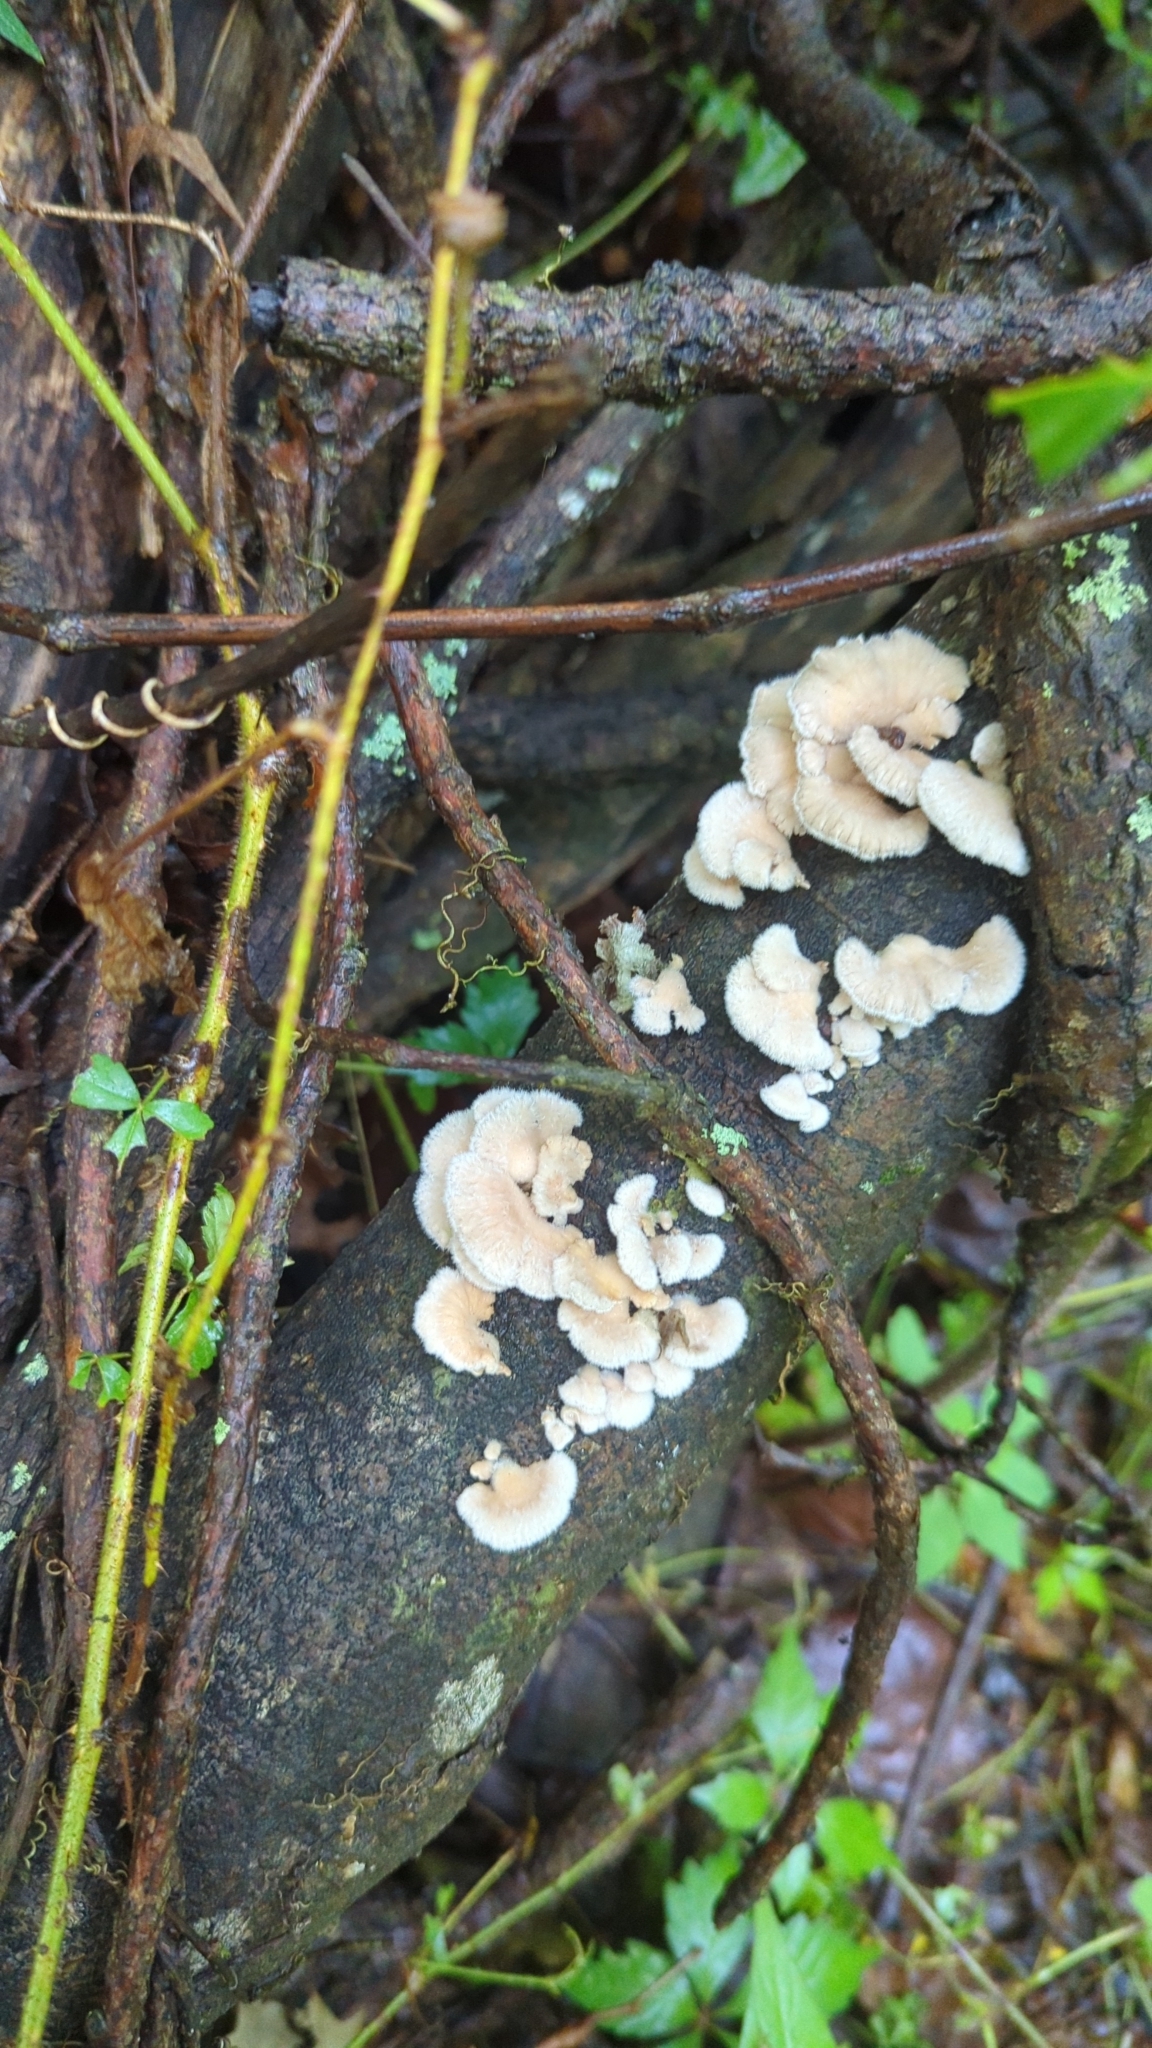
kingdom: Fungi
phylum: Basidiomycota
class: Agaricomycetes
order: Agaricales
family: Schizophyllaceae
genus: Schizophyllum
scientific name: Schizophyllum commune
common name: Common porecrust
